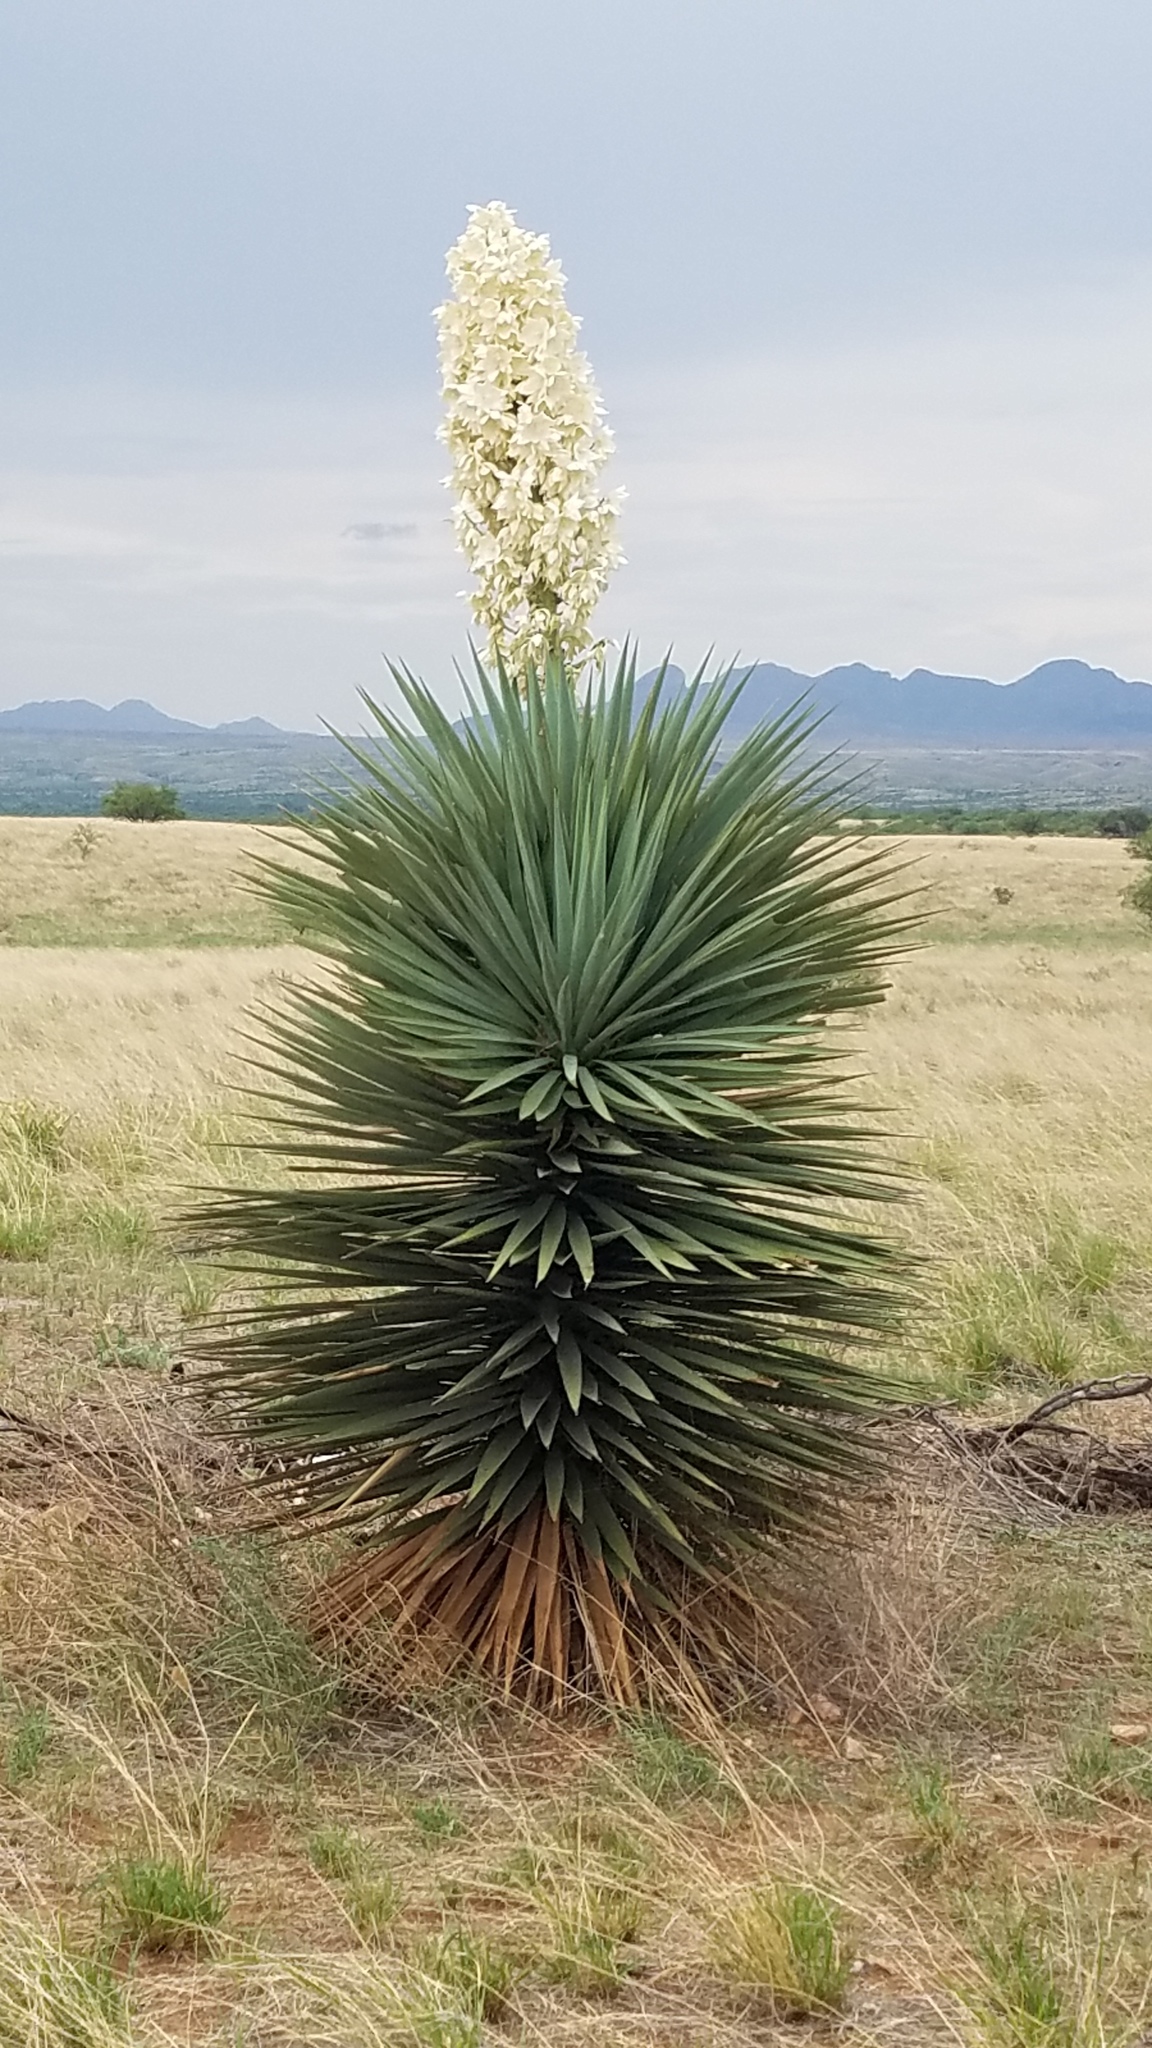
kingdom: Plantae
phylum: Tracheophyta
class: Liliopsida
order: Asparagales
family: Asparagaceae
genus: Yucca
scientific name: Yucca madrensis
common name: Hoary yucca
